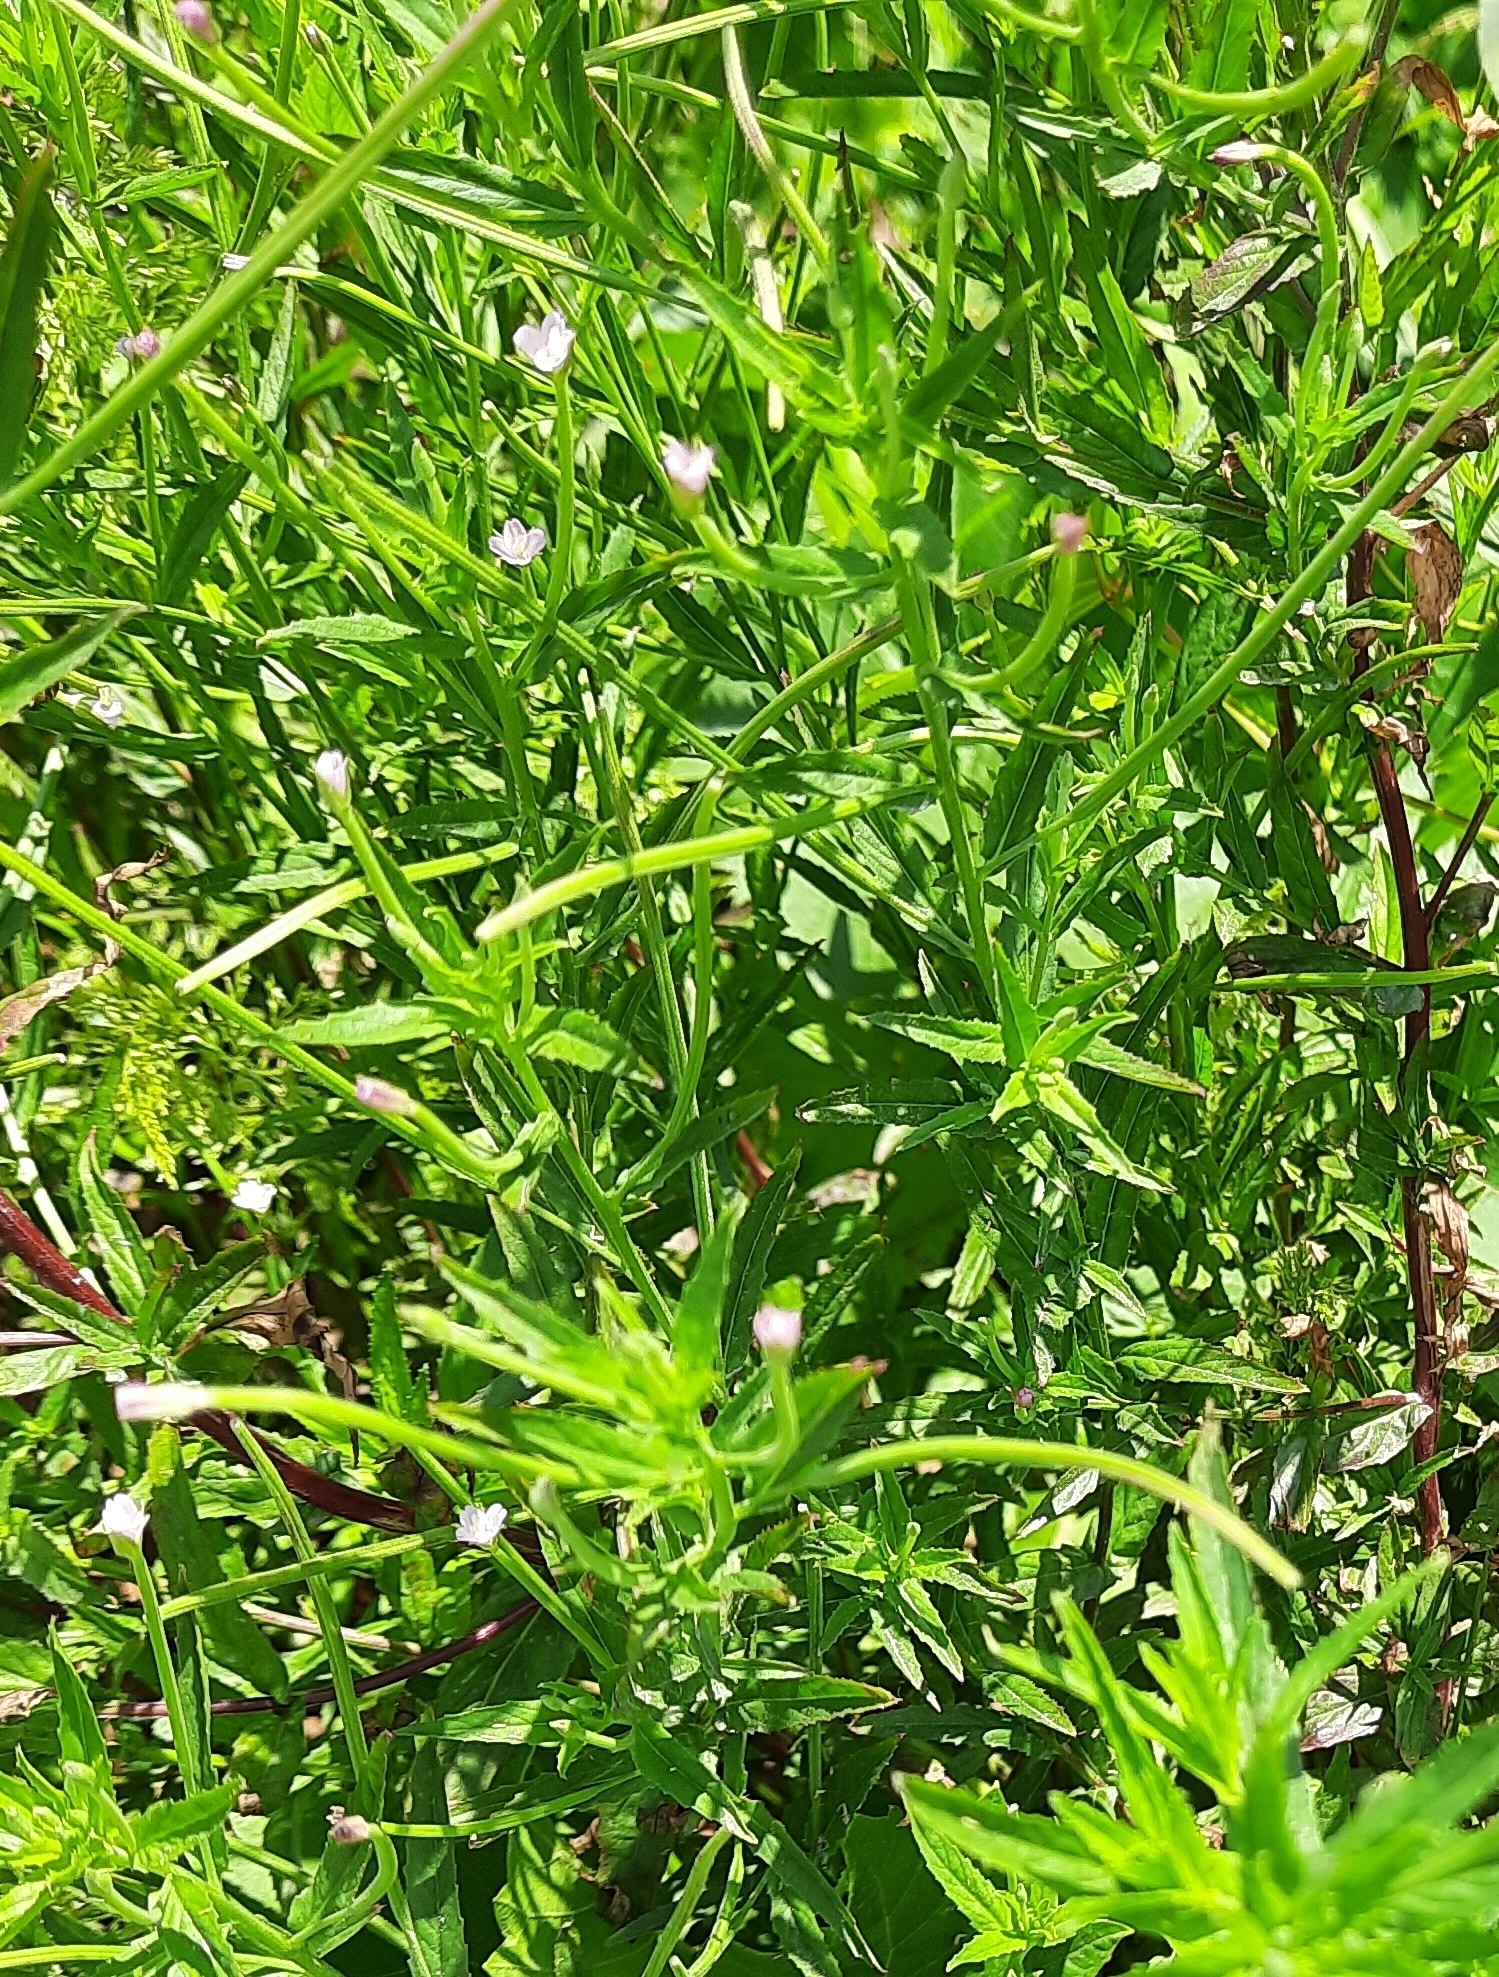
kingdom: Plantae
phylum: Tracheophyta
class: Magnoliopsida
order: Myrtales
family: Onagraceae
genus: Epilobium
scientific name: Epilobium ciliatum
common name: American willowherb
